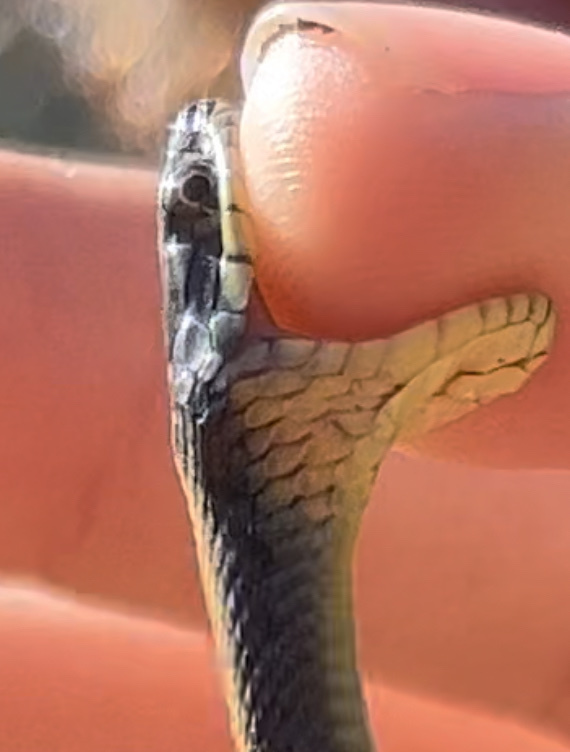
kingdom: Animalia
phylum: Chordata
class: Squamata
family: Colubridae
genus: Thamnophis
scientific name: Thamnophis atratus
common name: Pacific coast aquatic garter snake
